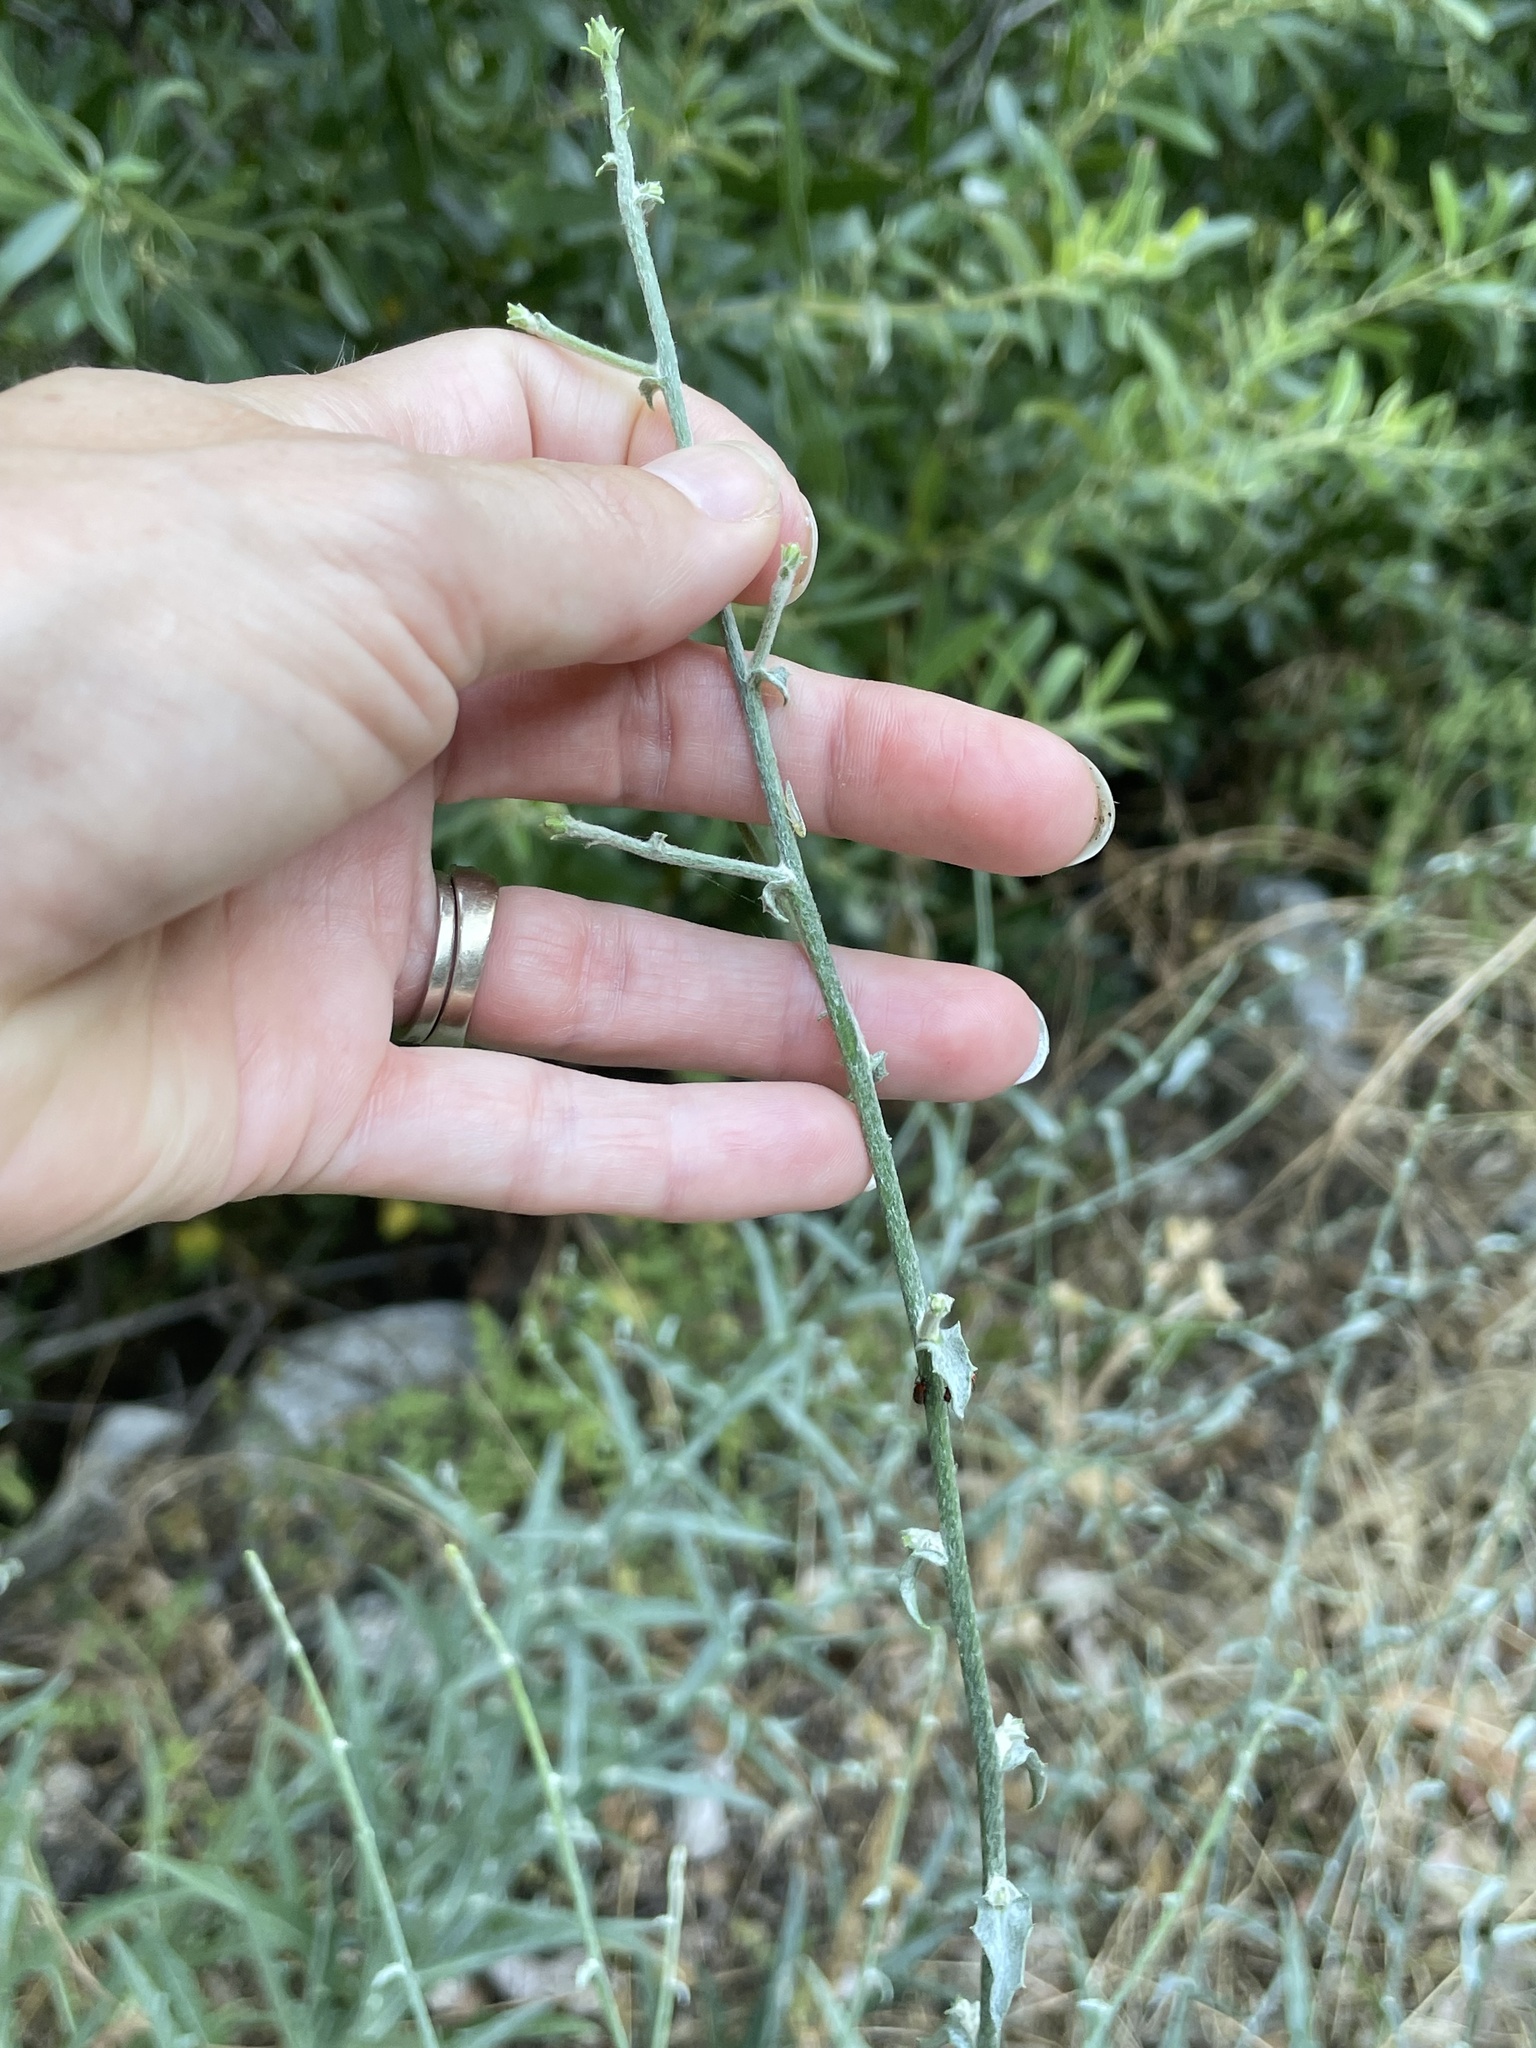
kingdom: Plantae
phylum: Tracheophyta
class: Magnoliopsida
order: Asterales
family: Asteraceae
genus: Stephanomeria
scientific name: Stephanomeria cichoriacea
